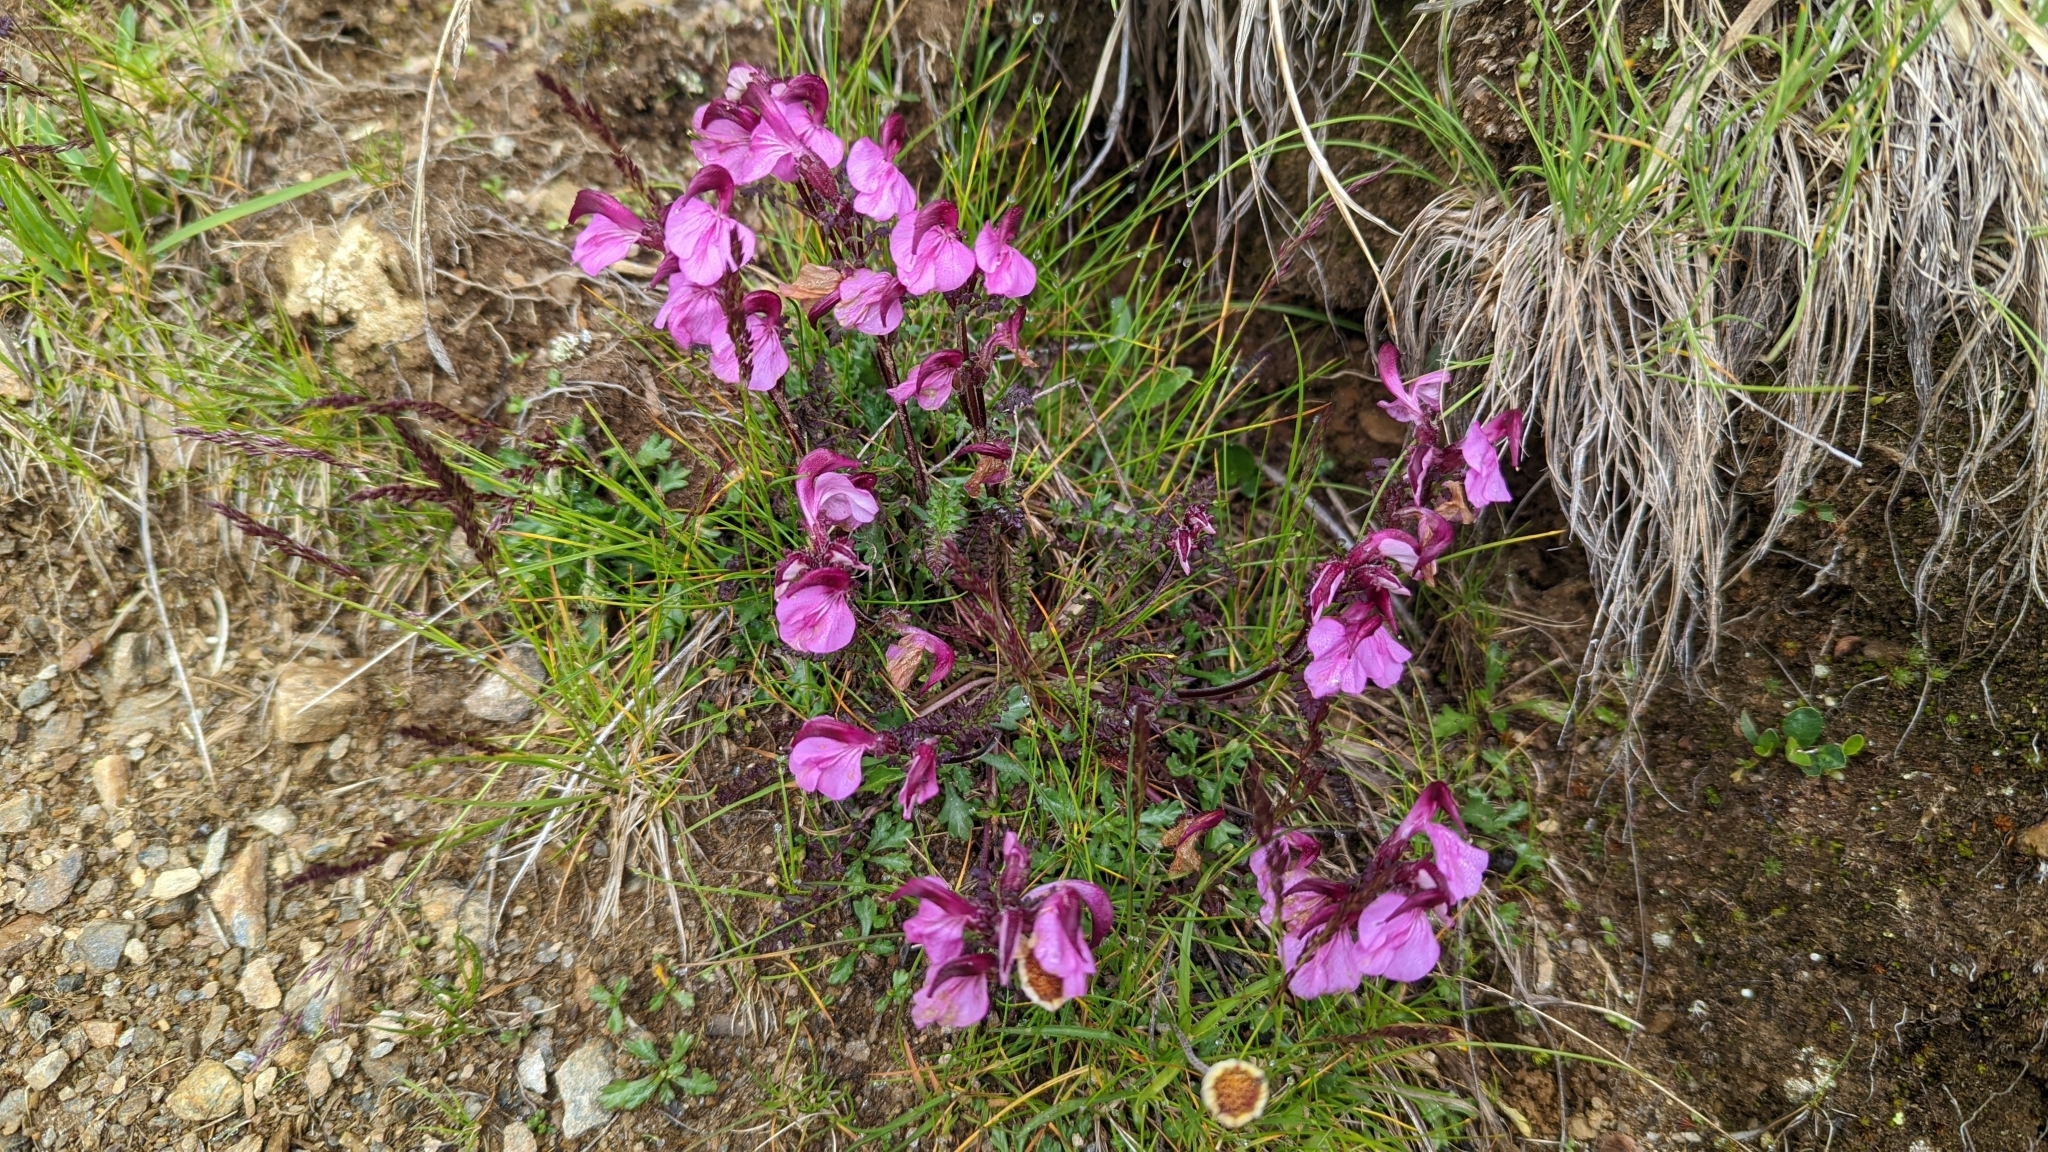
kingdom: Plantae
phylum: Tracheophyta
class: Magnoliopsida
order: Lamiales
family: Orobanchaceae
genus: Pedicularis
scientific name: Pedicularis kerneri
